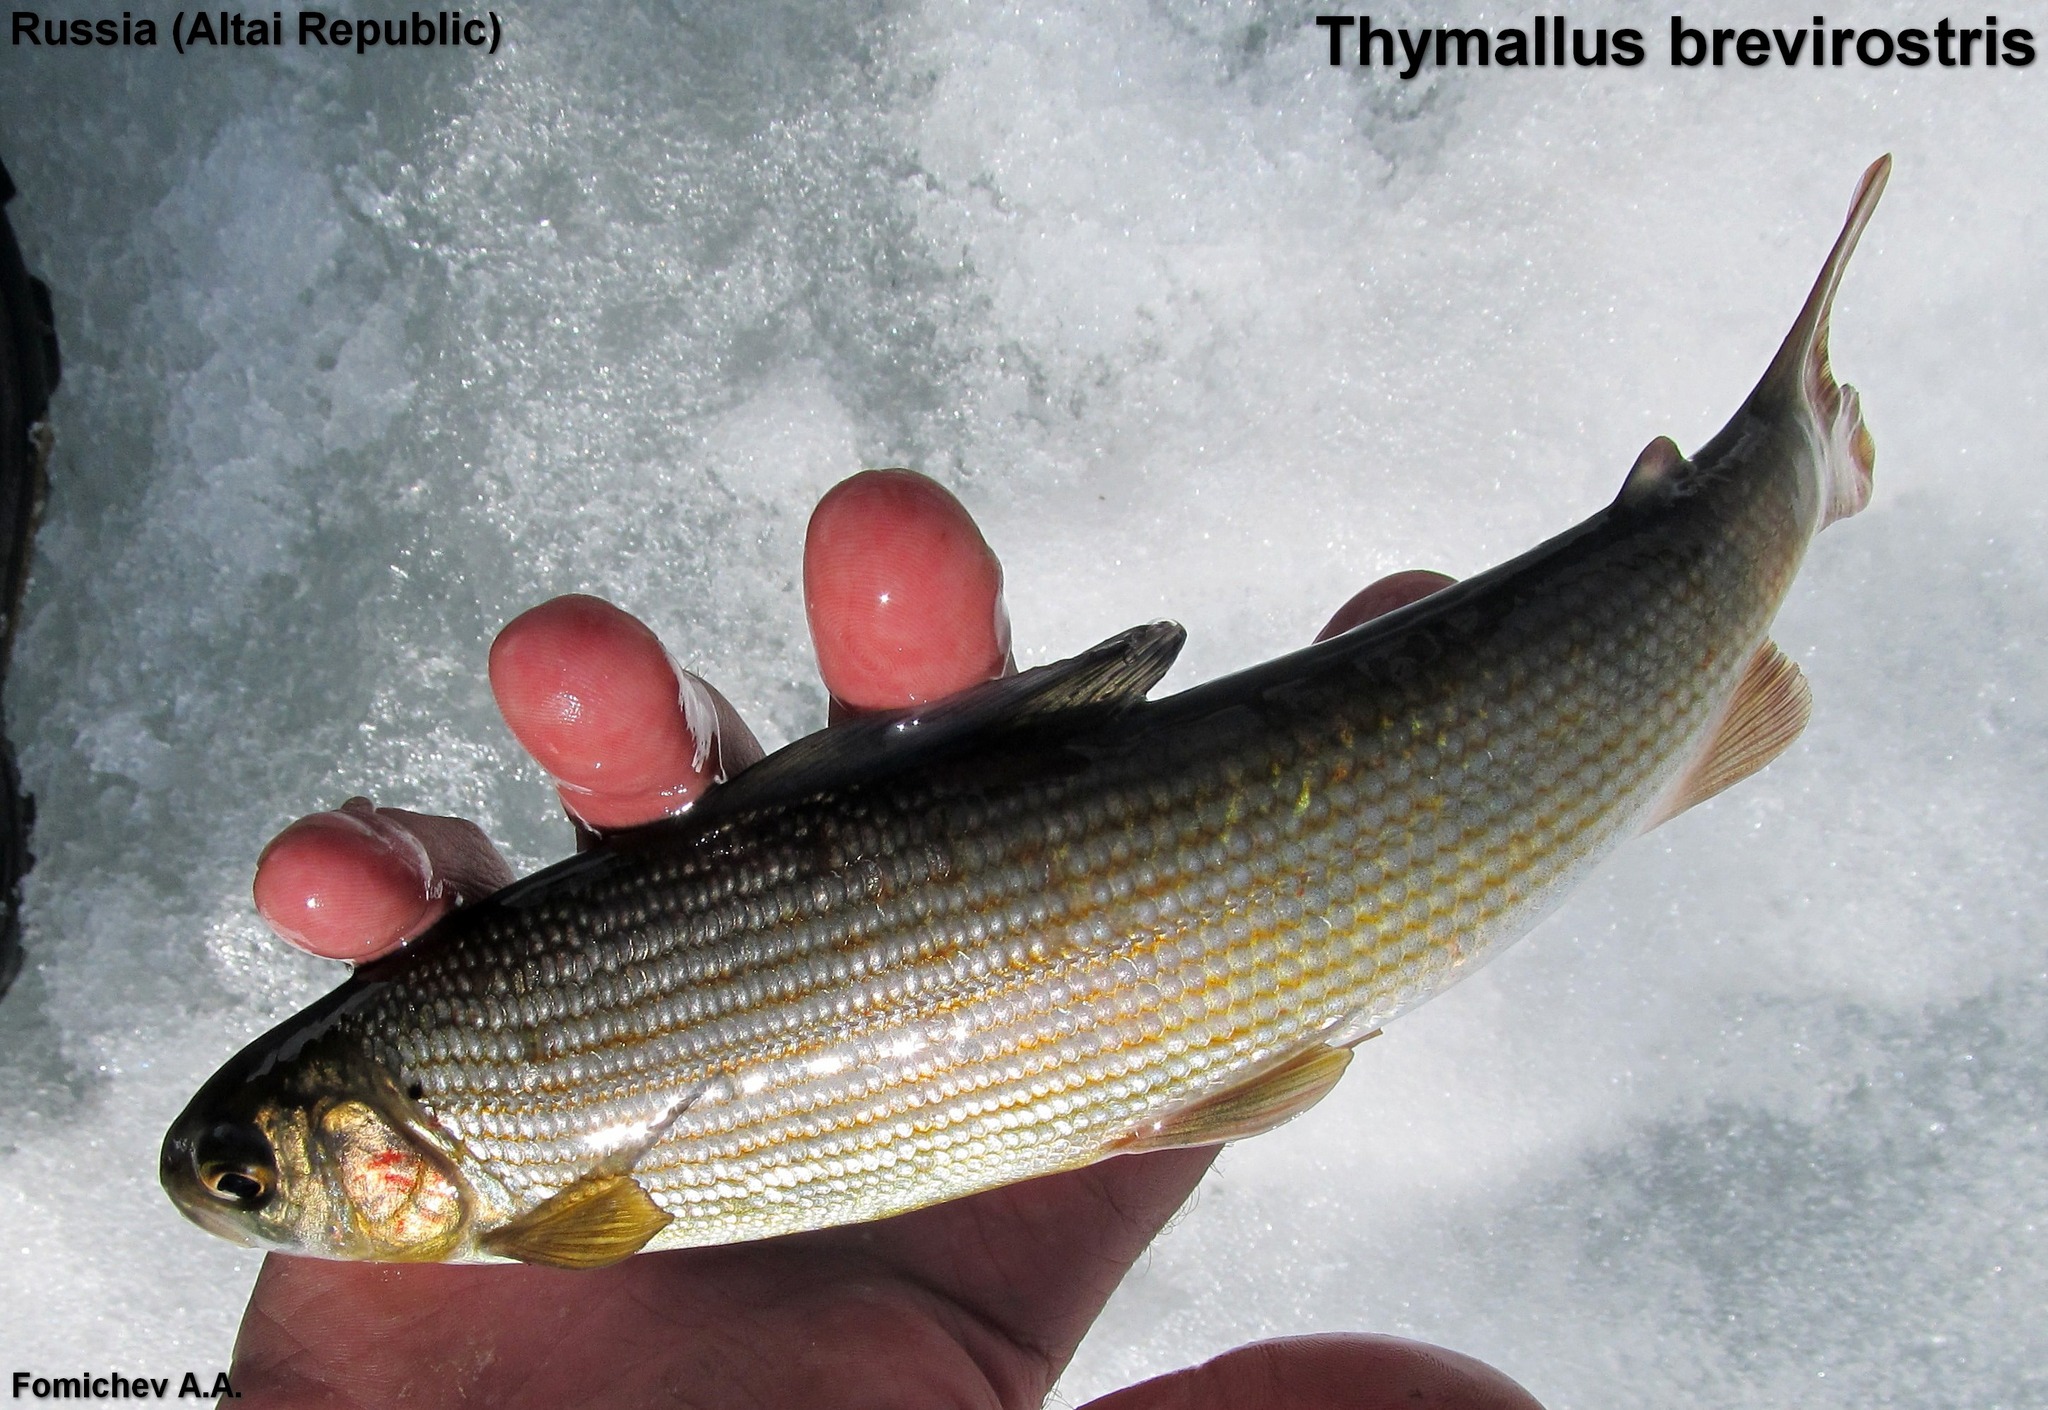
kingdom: Animalia
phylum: Chordata
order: Salmoniformes
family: Salmonidae
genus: Thymallus
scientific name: Thymallus brevirostris
